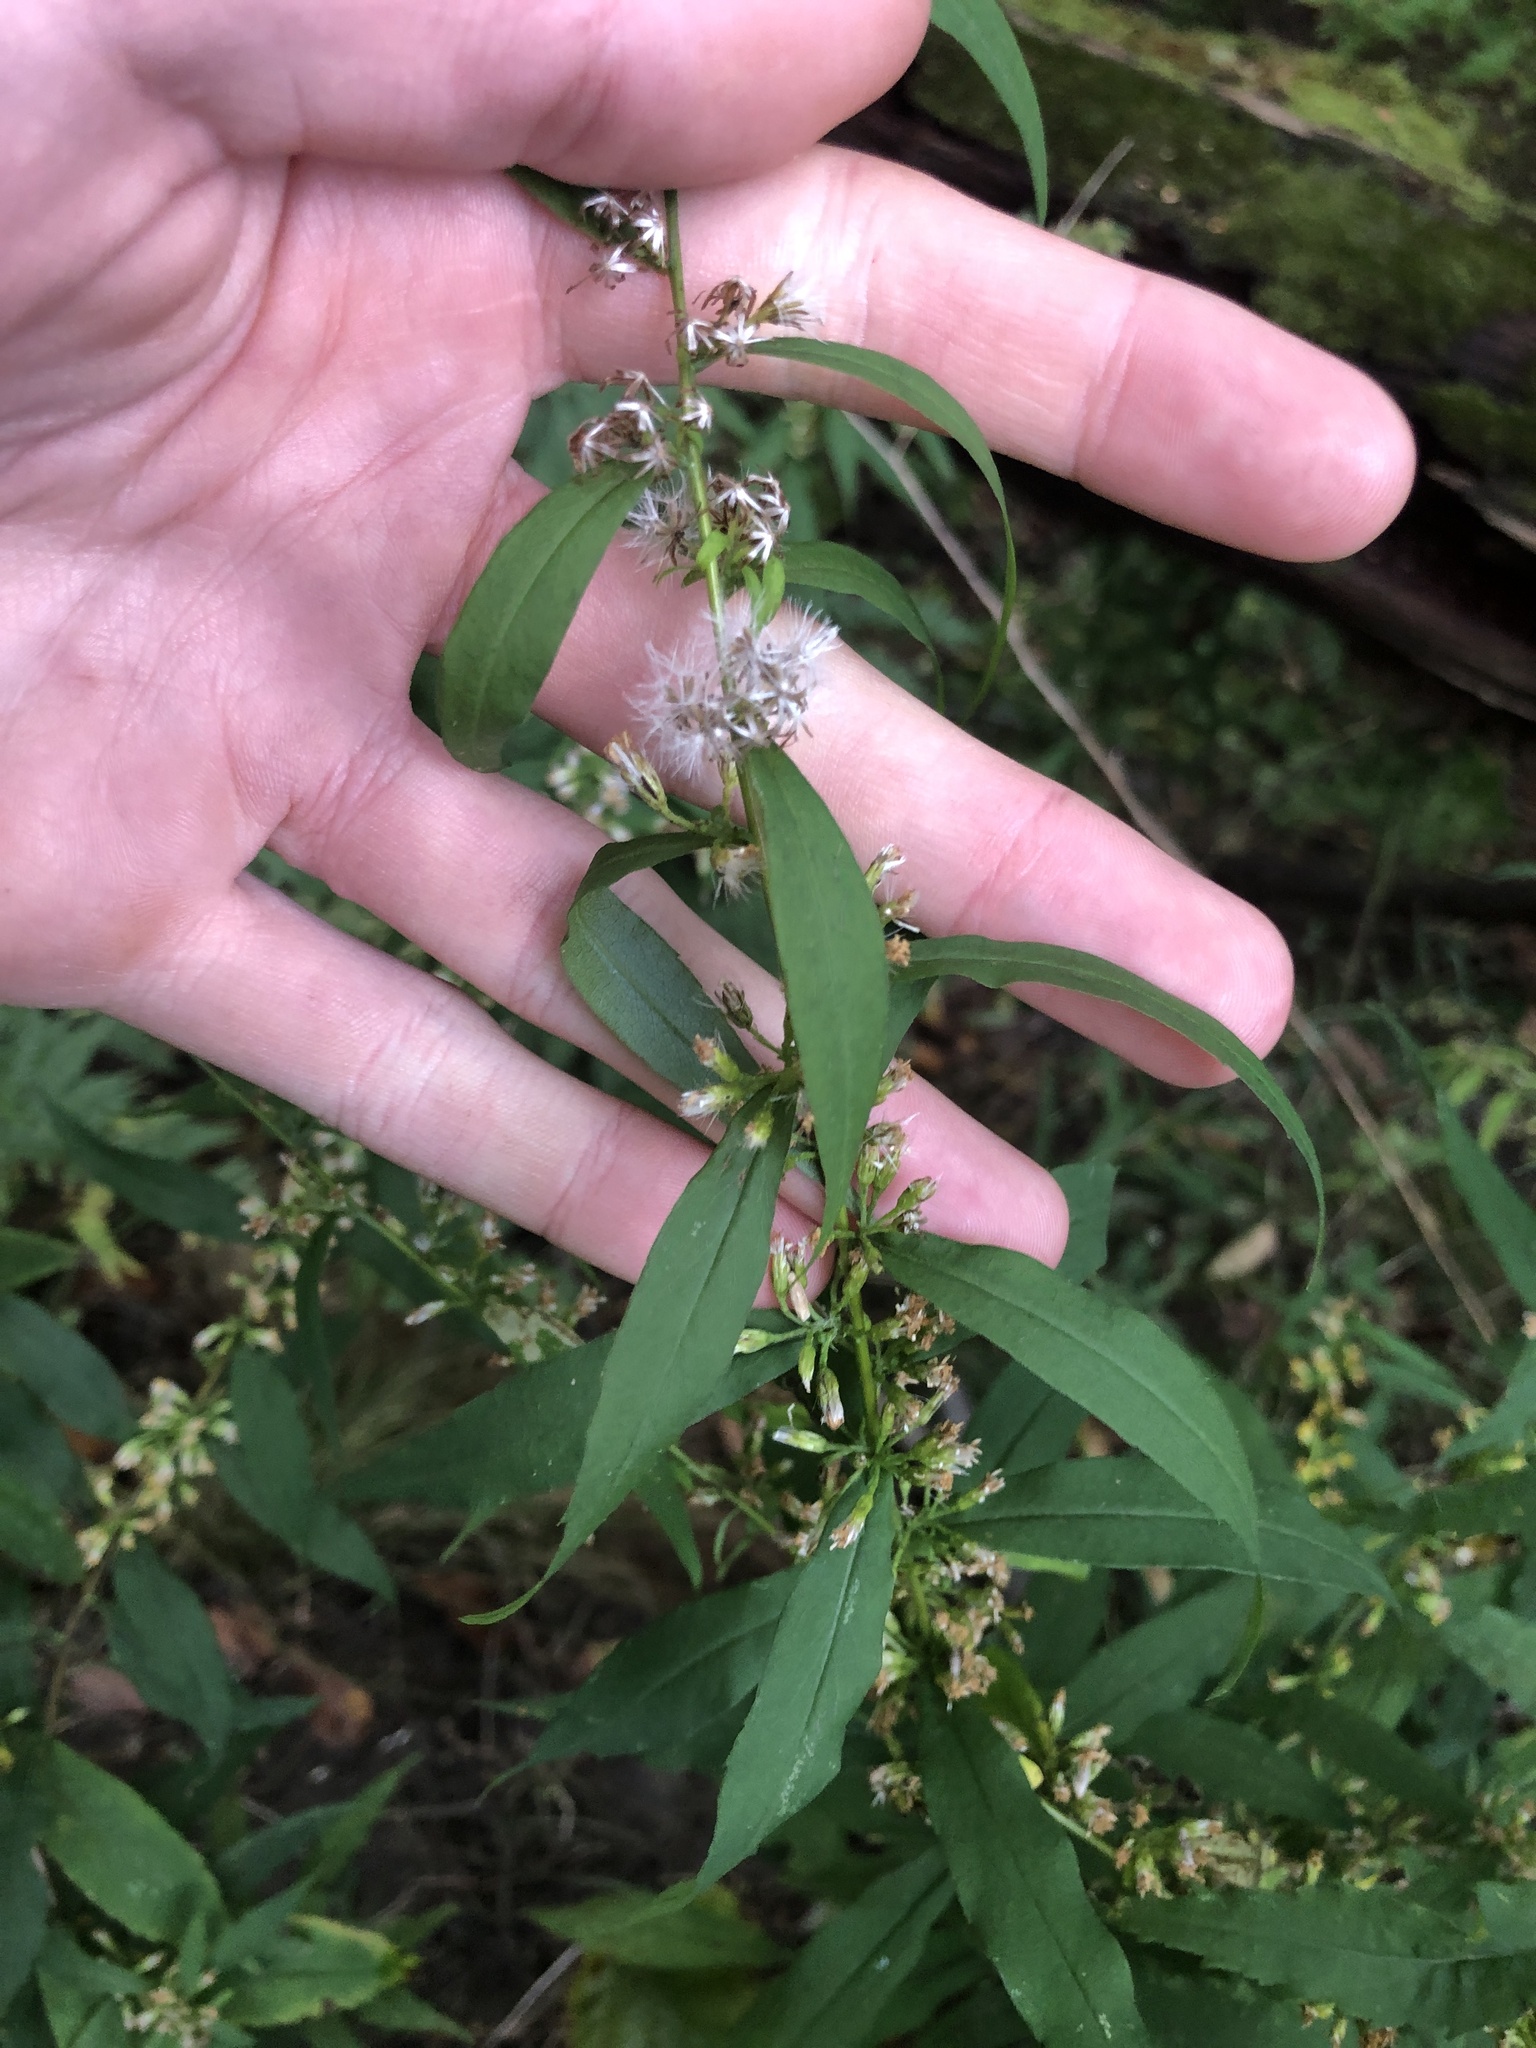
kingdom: Plantae
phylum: Tracheophyta
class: Magnoliopsida
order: Asterales
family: Asteraceae
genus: Solidago
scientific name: Solidago caesia
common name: Woodland goldenrod
